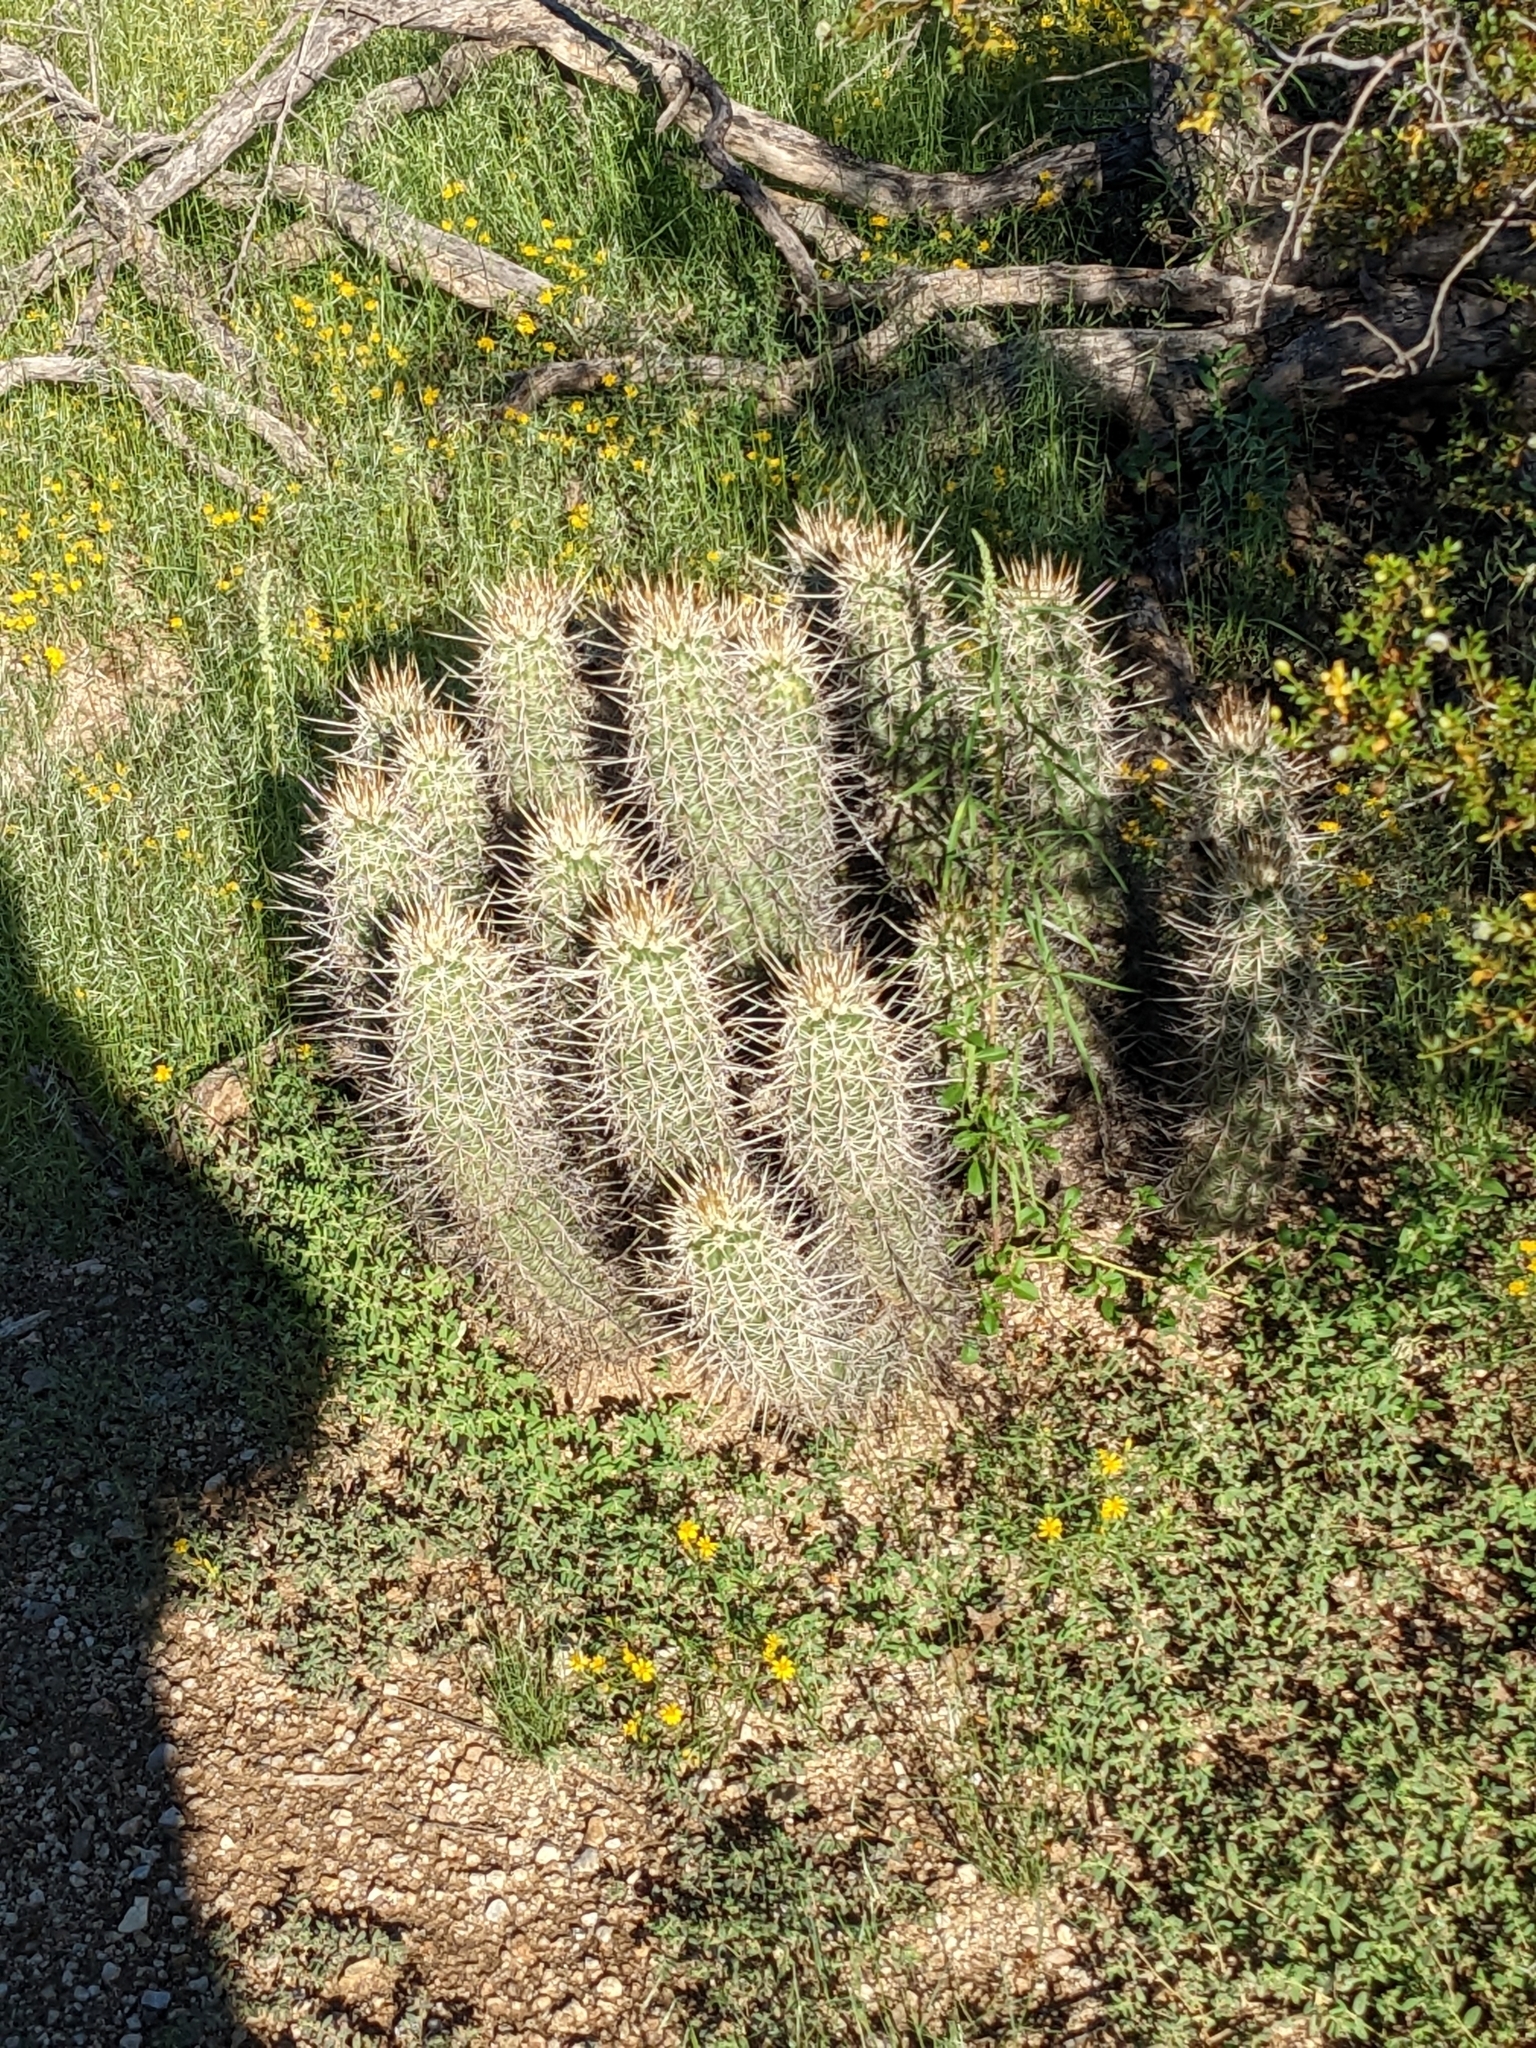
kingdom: Plantae
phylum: Tracheophyta
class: Magnoliopsida
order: Caryophyllales
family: Cactaceae
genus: Echinocereus
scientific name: Echinocereus engelmannii
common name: Engelmann's hedgehog cactus
